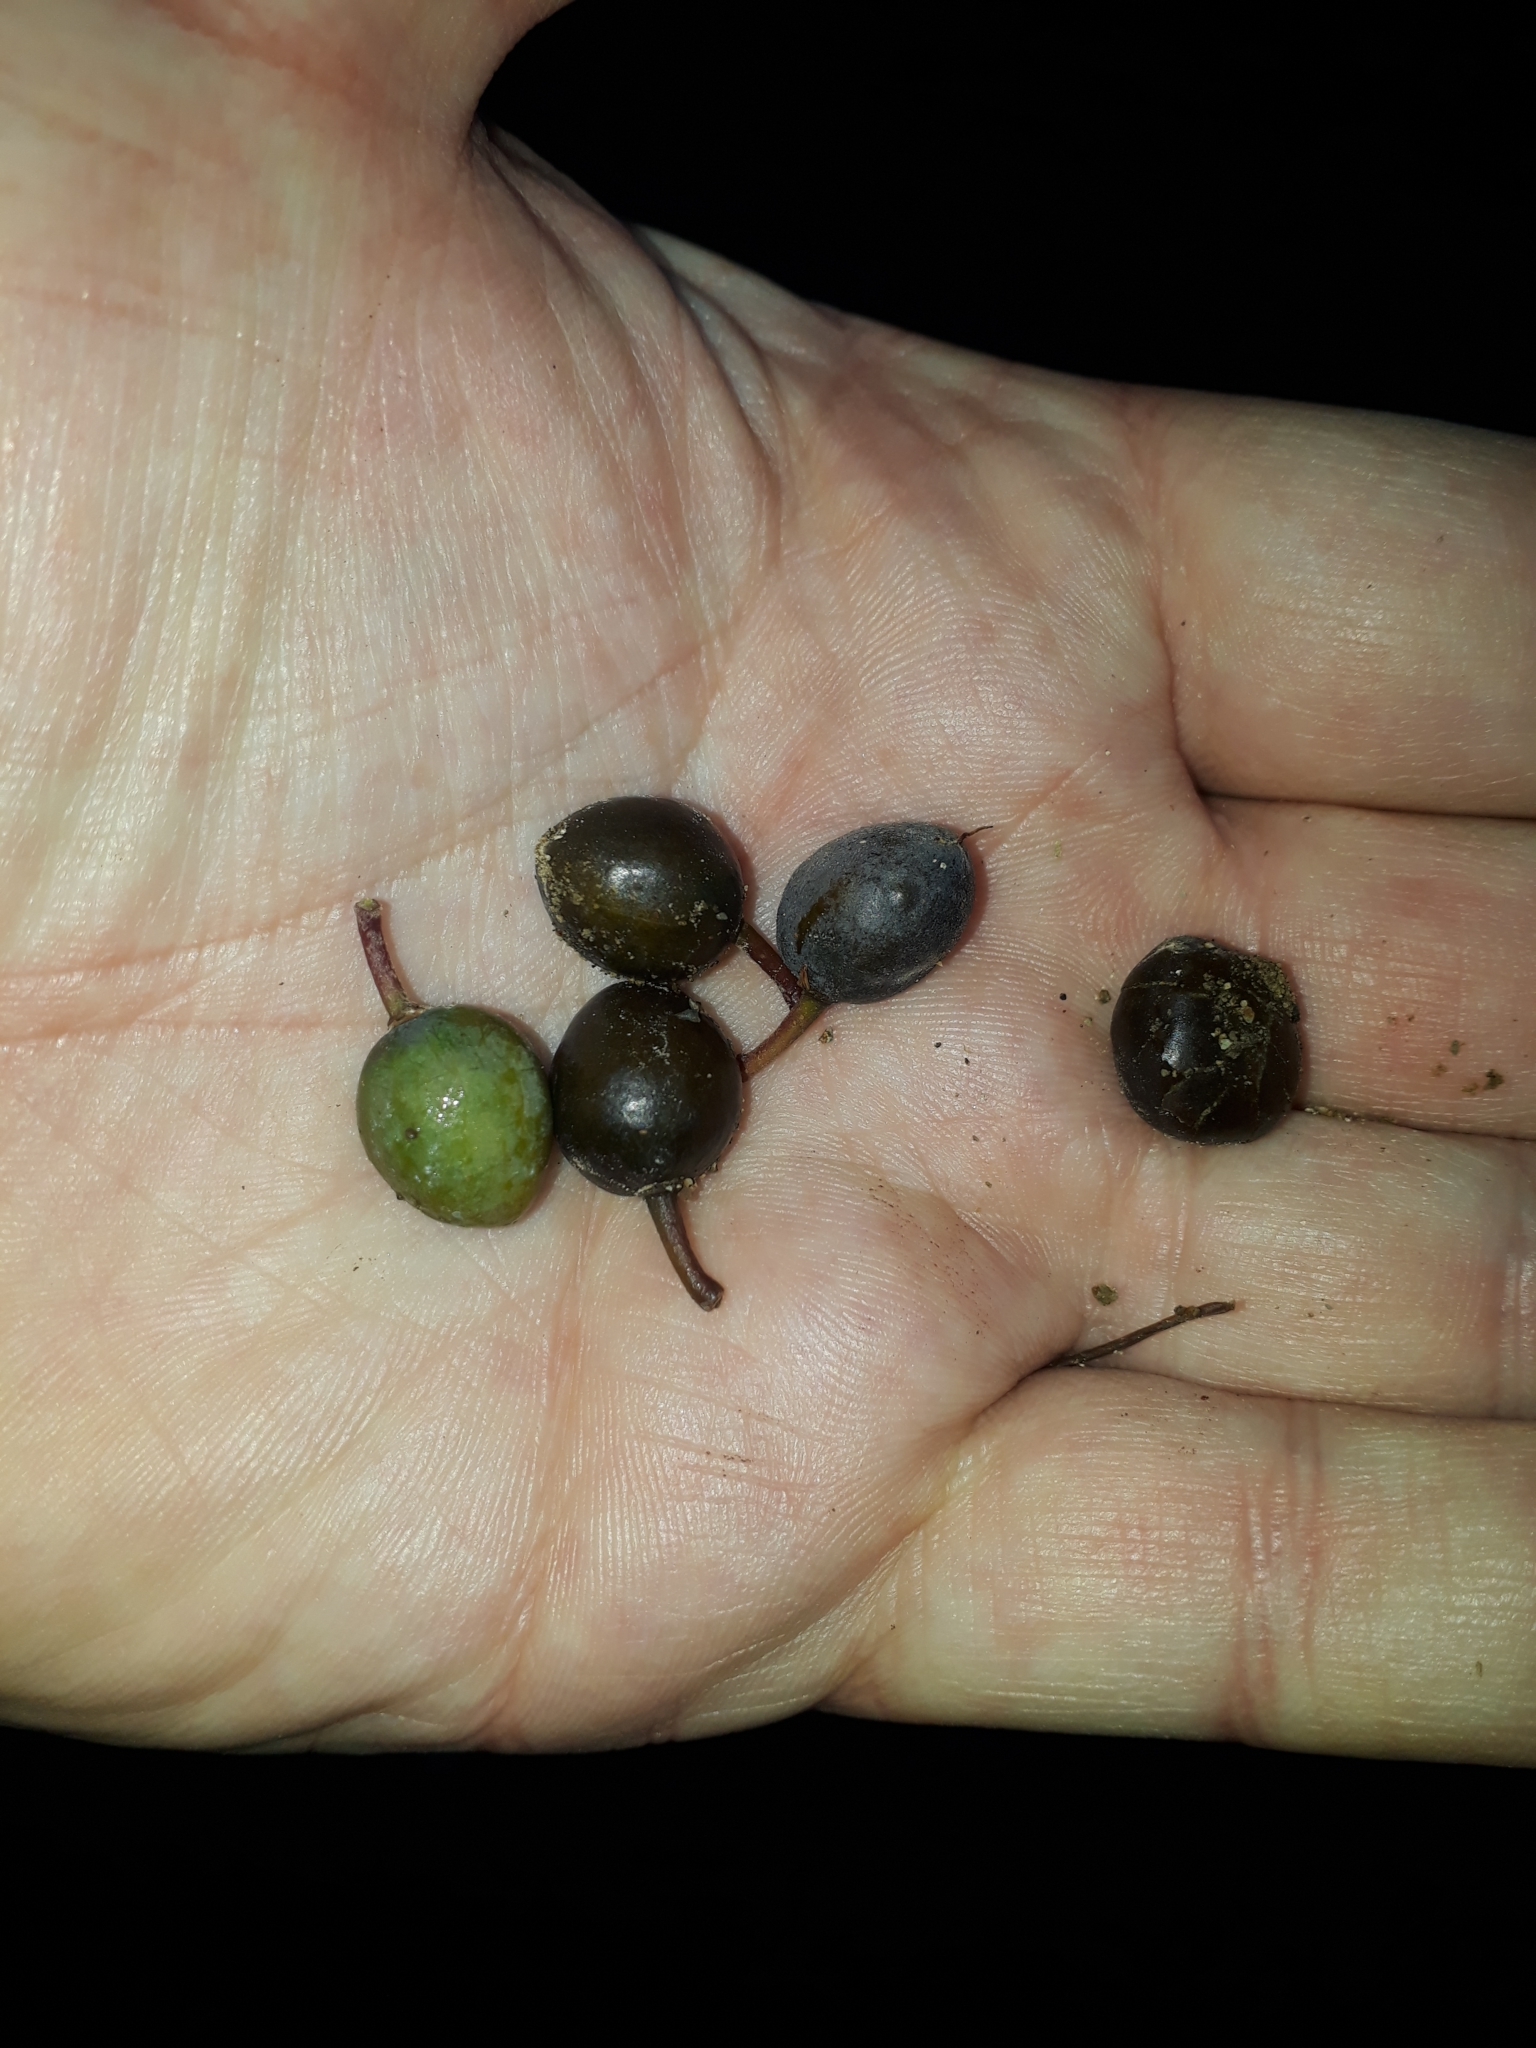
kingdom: Plantae
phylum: Tracheophyta
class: Magnoliopsida
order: Oxalidales
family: Elaeocarpaceae
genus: Elaeocarpus
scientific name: Elaeocarpus dentatus
